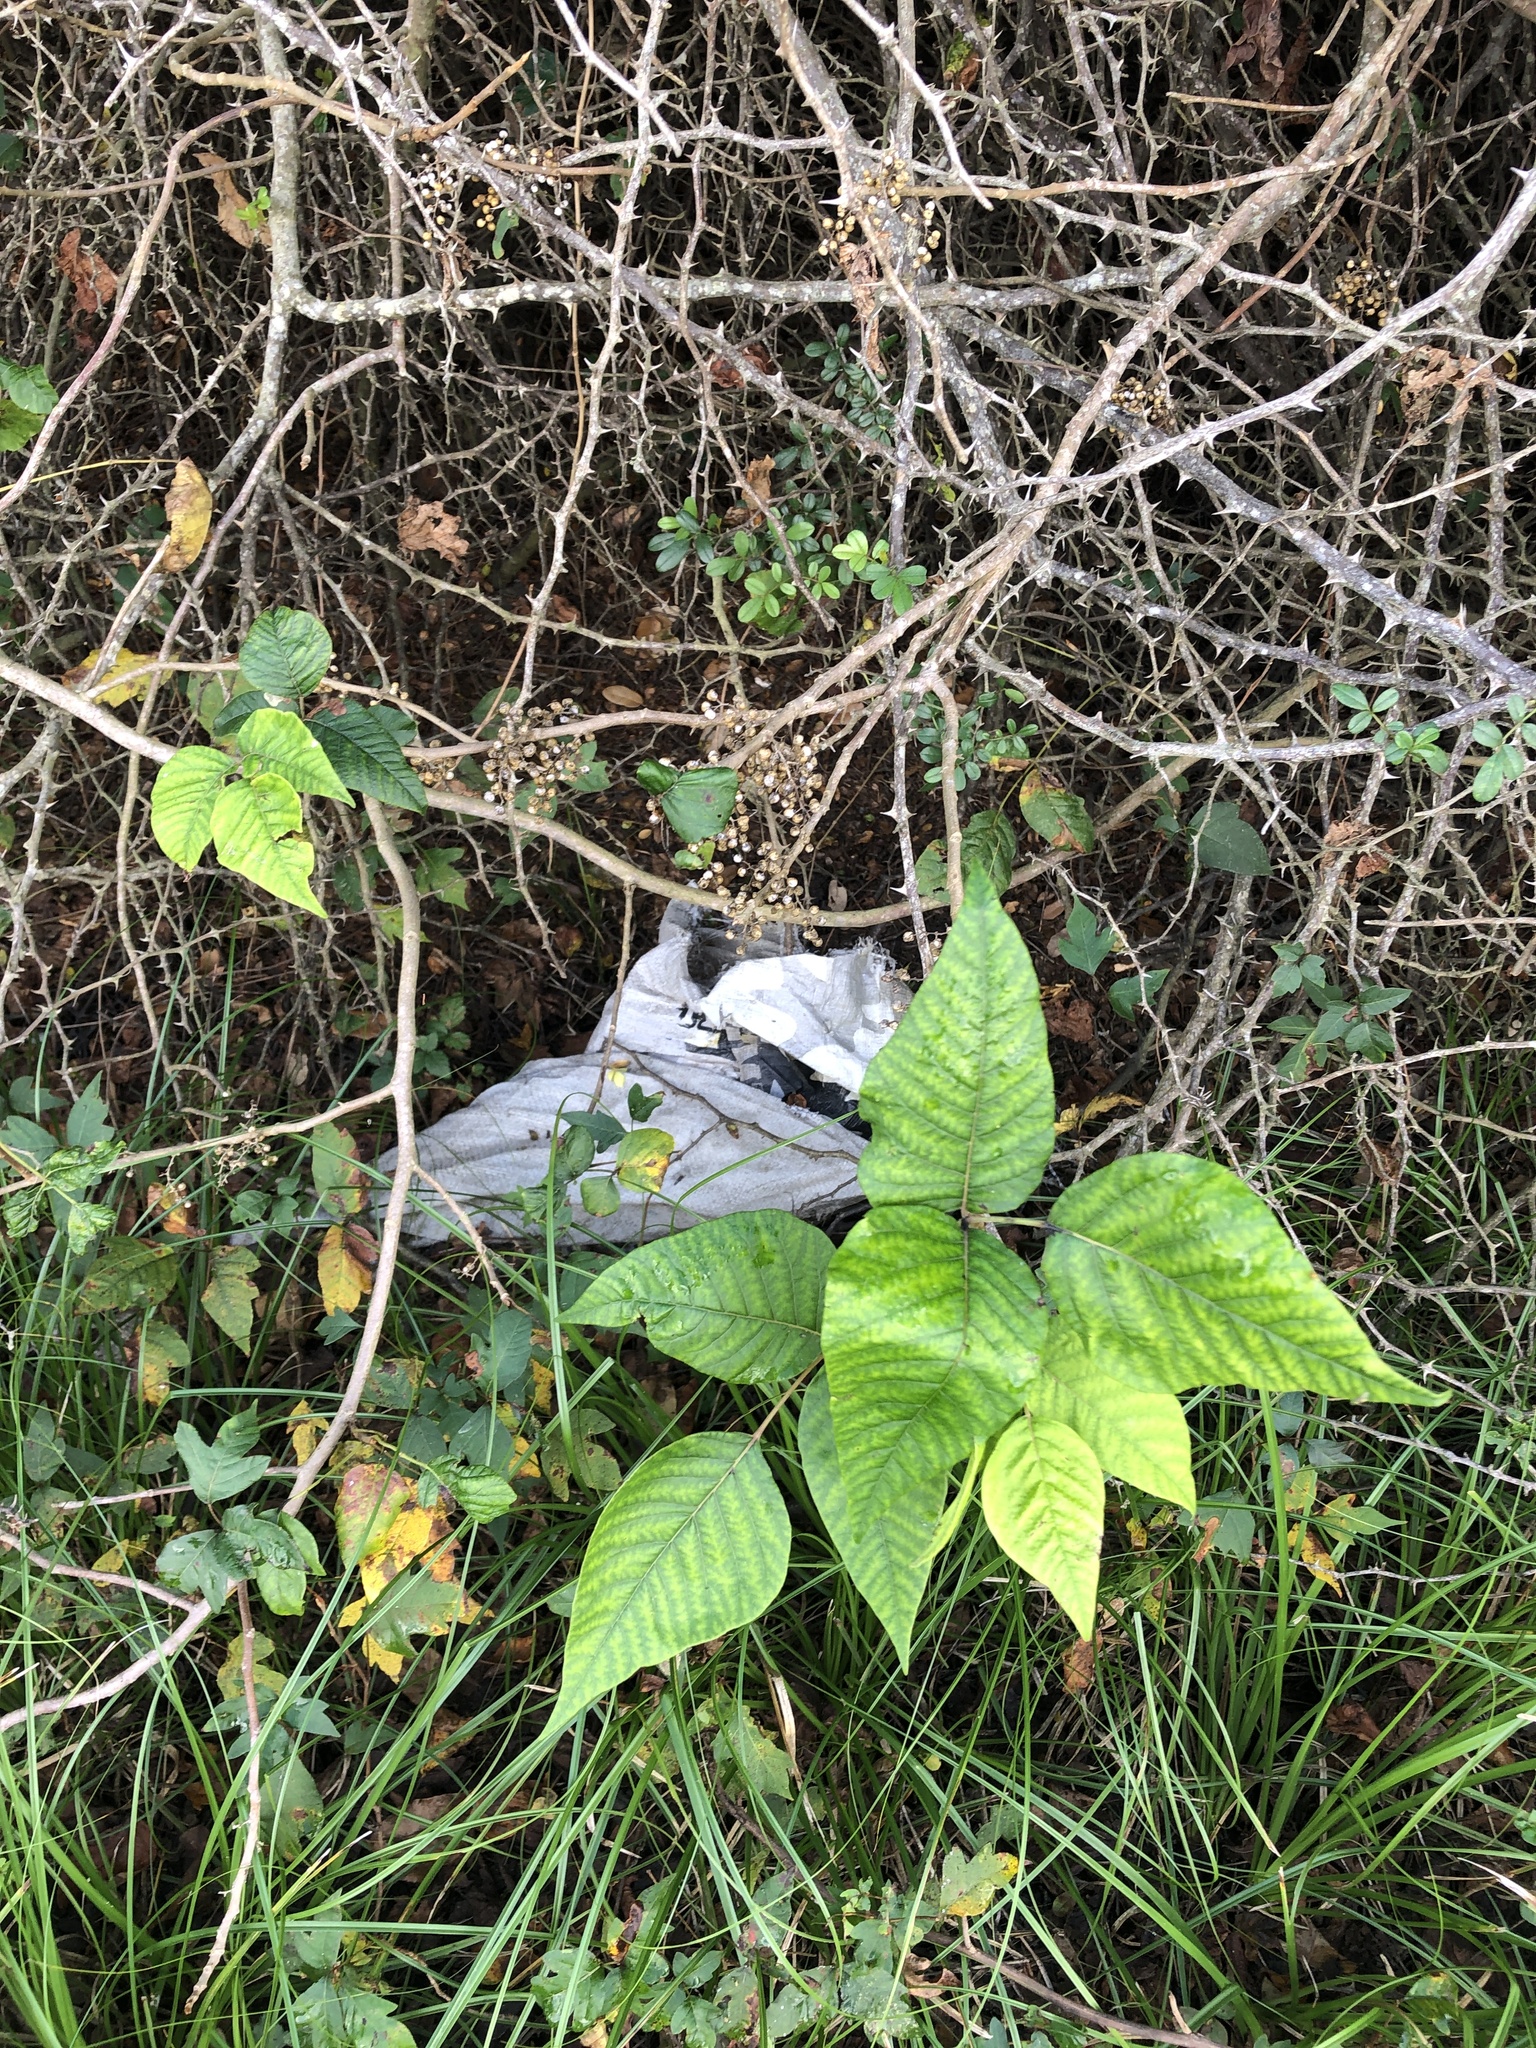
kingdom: Plantae
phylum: Tracheophyta
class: Magnoliopsida
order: Sapindales
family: Anacardiaceae
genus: Toxicodendron
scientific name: Toxicodendron radicans
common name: Poison ivy
